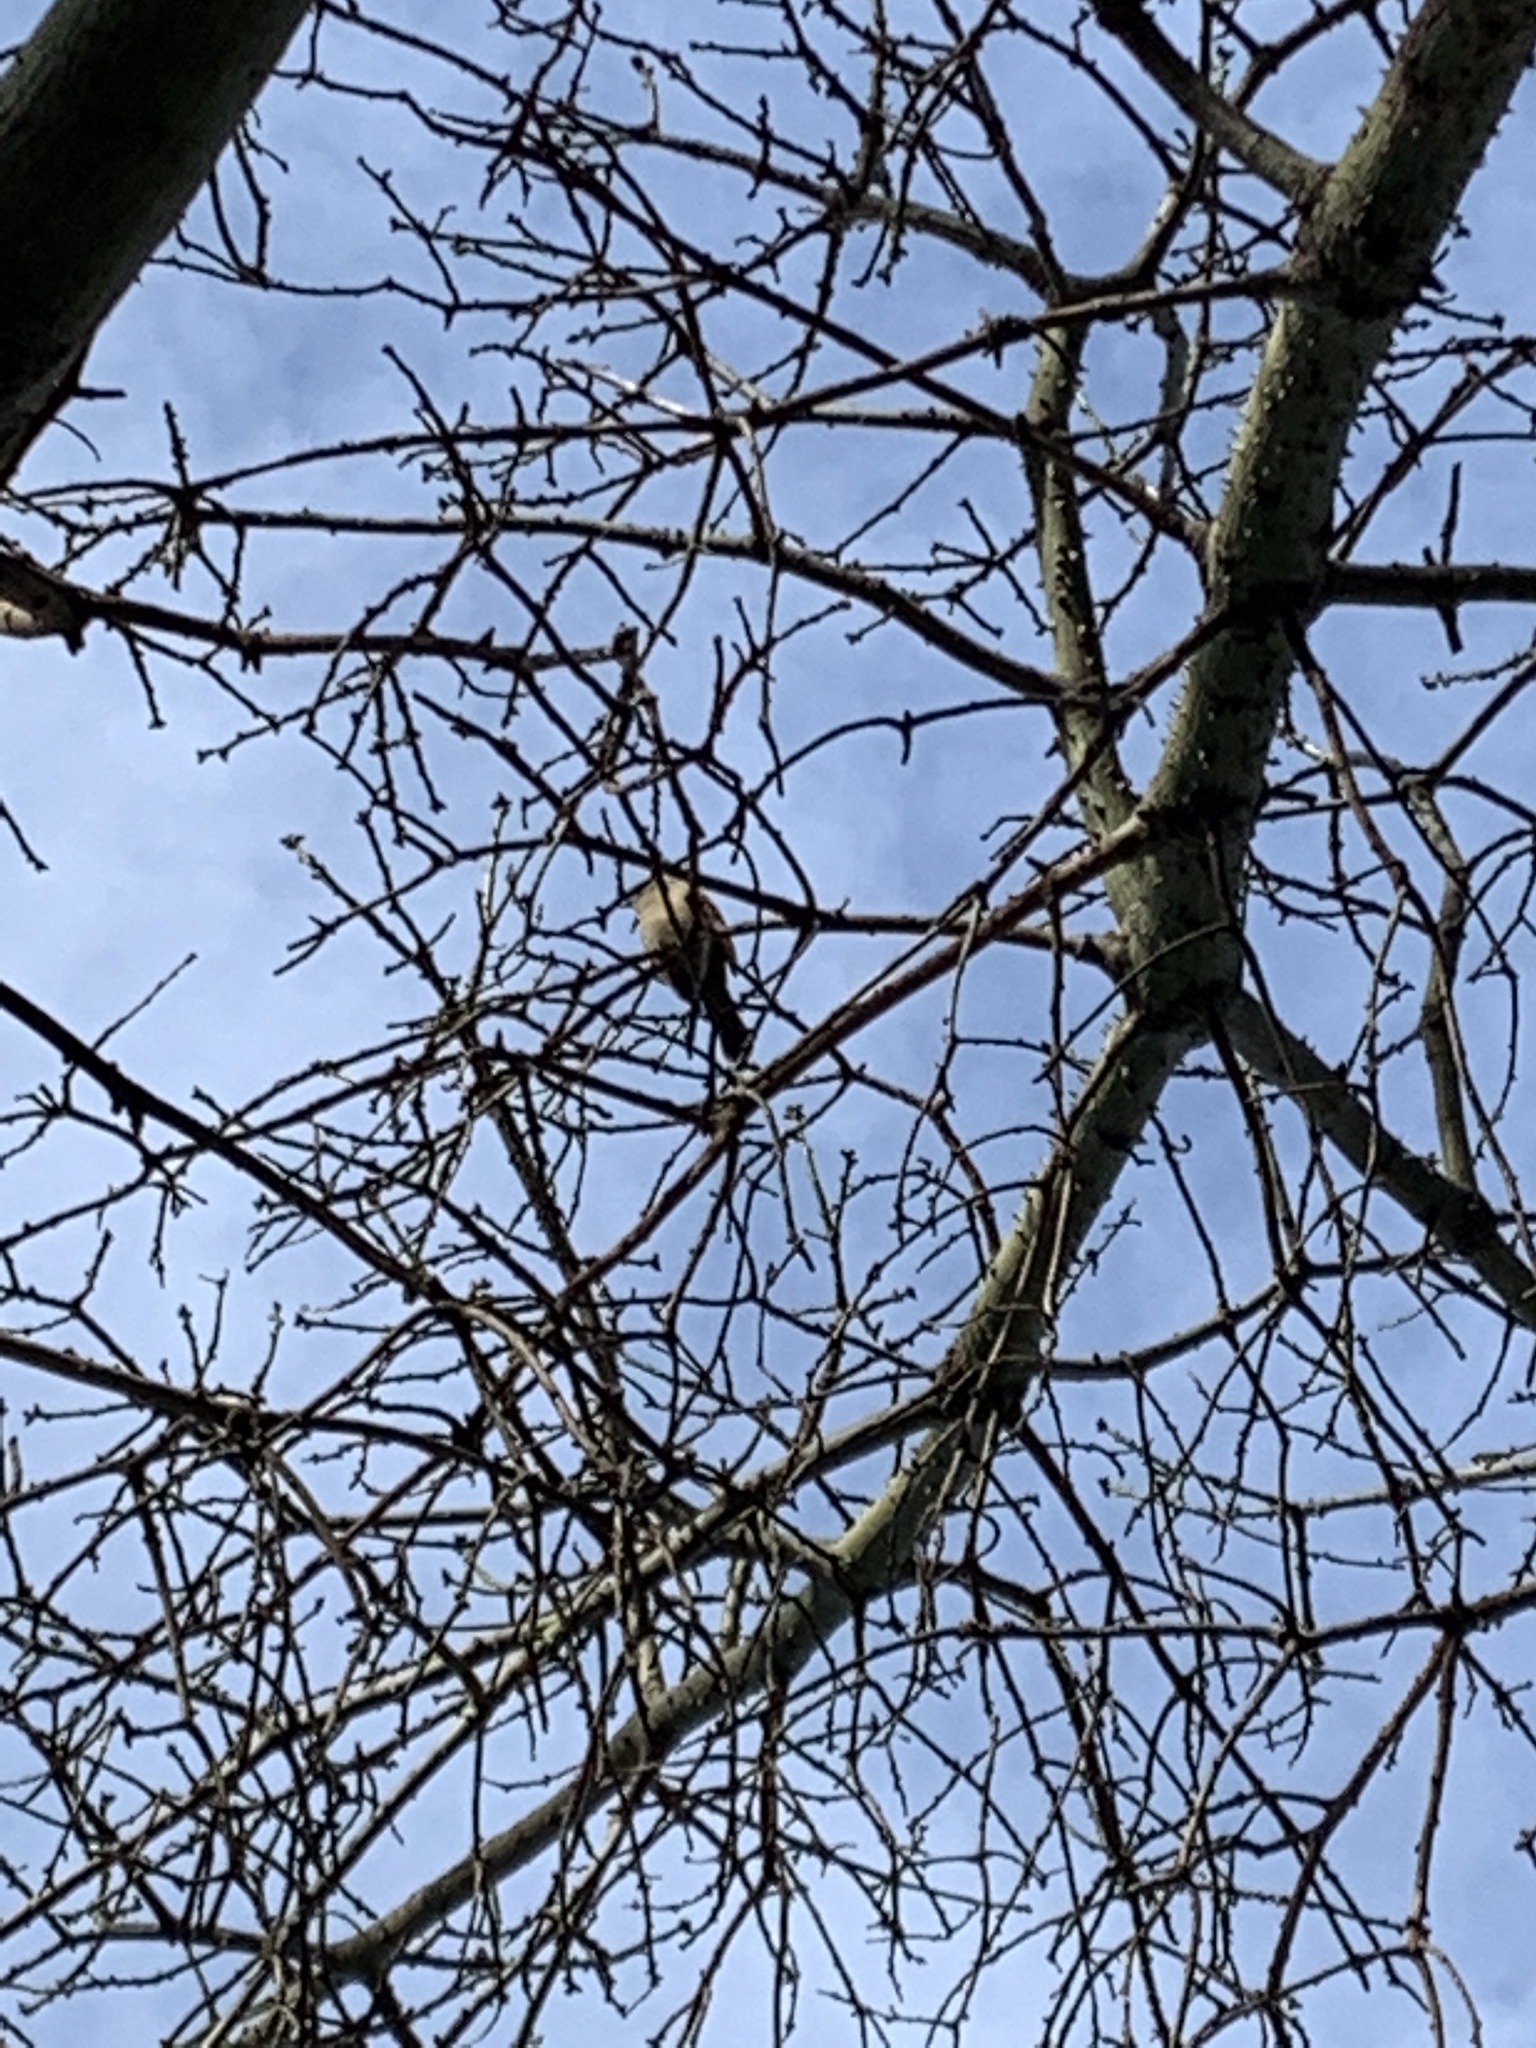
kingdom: Animalia
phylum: Chordata
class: Aves
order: Passeriformes
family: Icteridae
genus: Agelaioides
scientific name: Agelaioides badius
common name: Baywing
